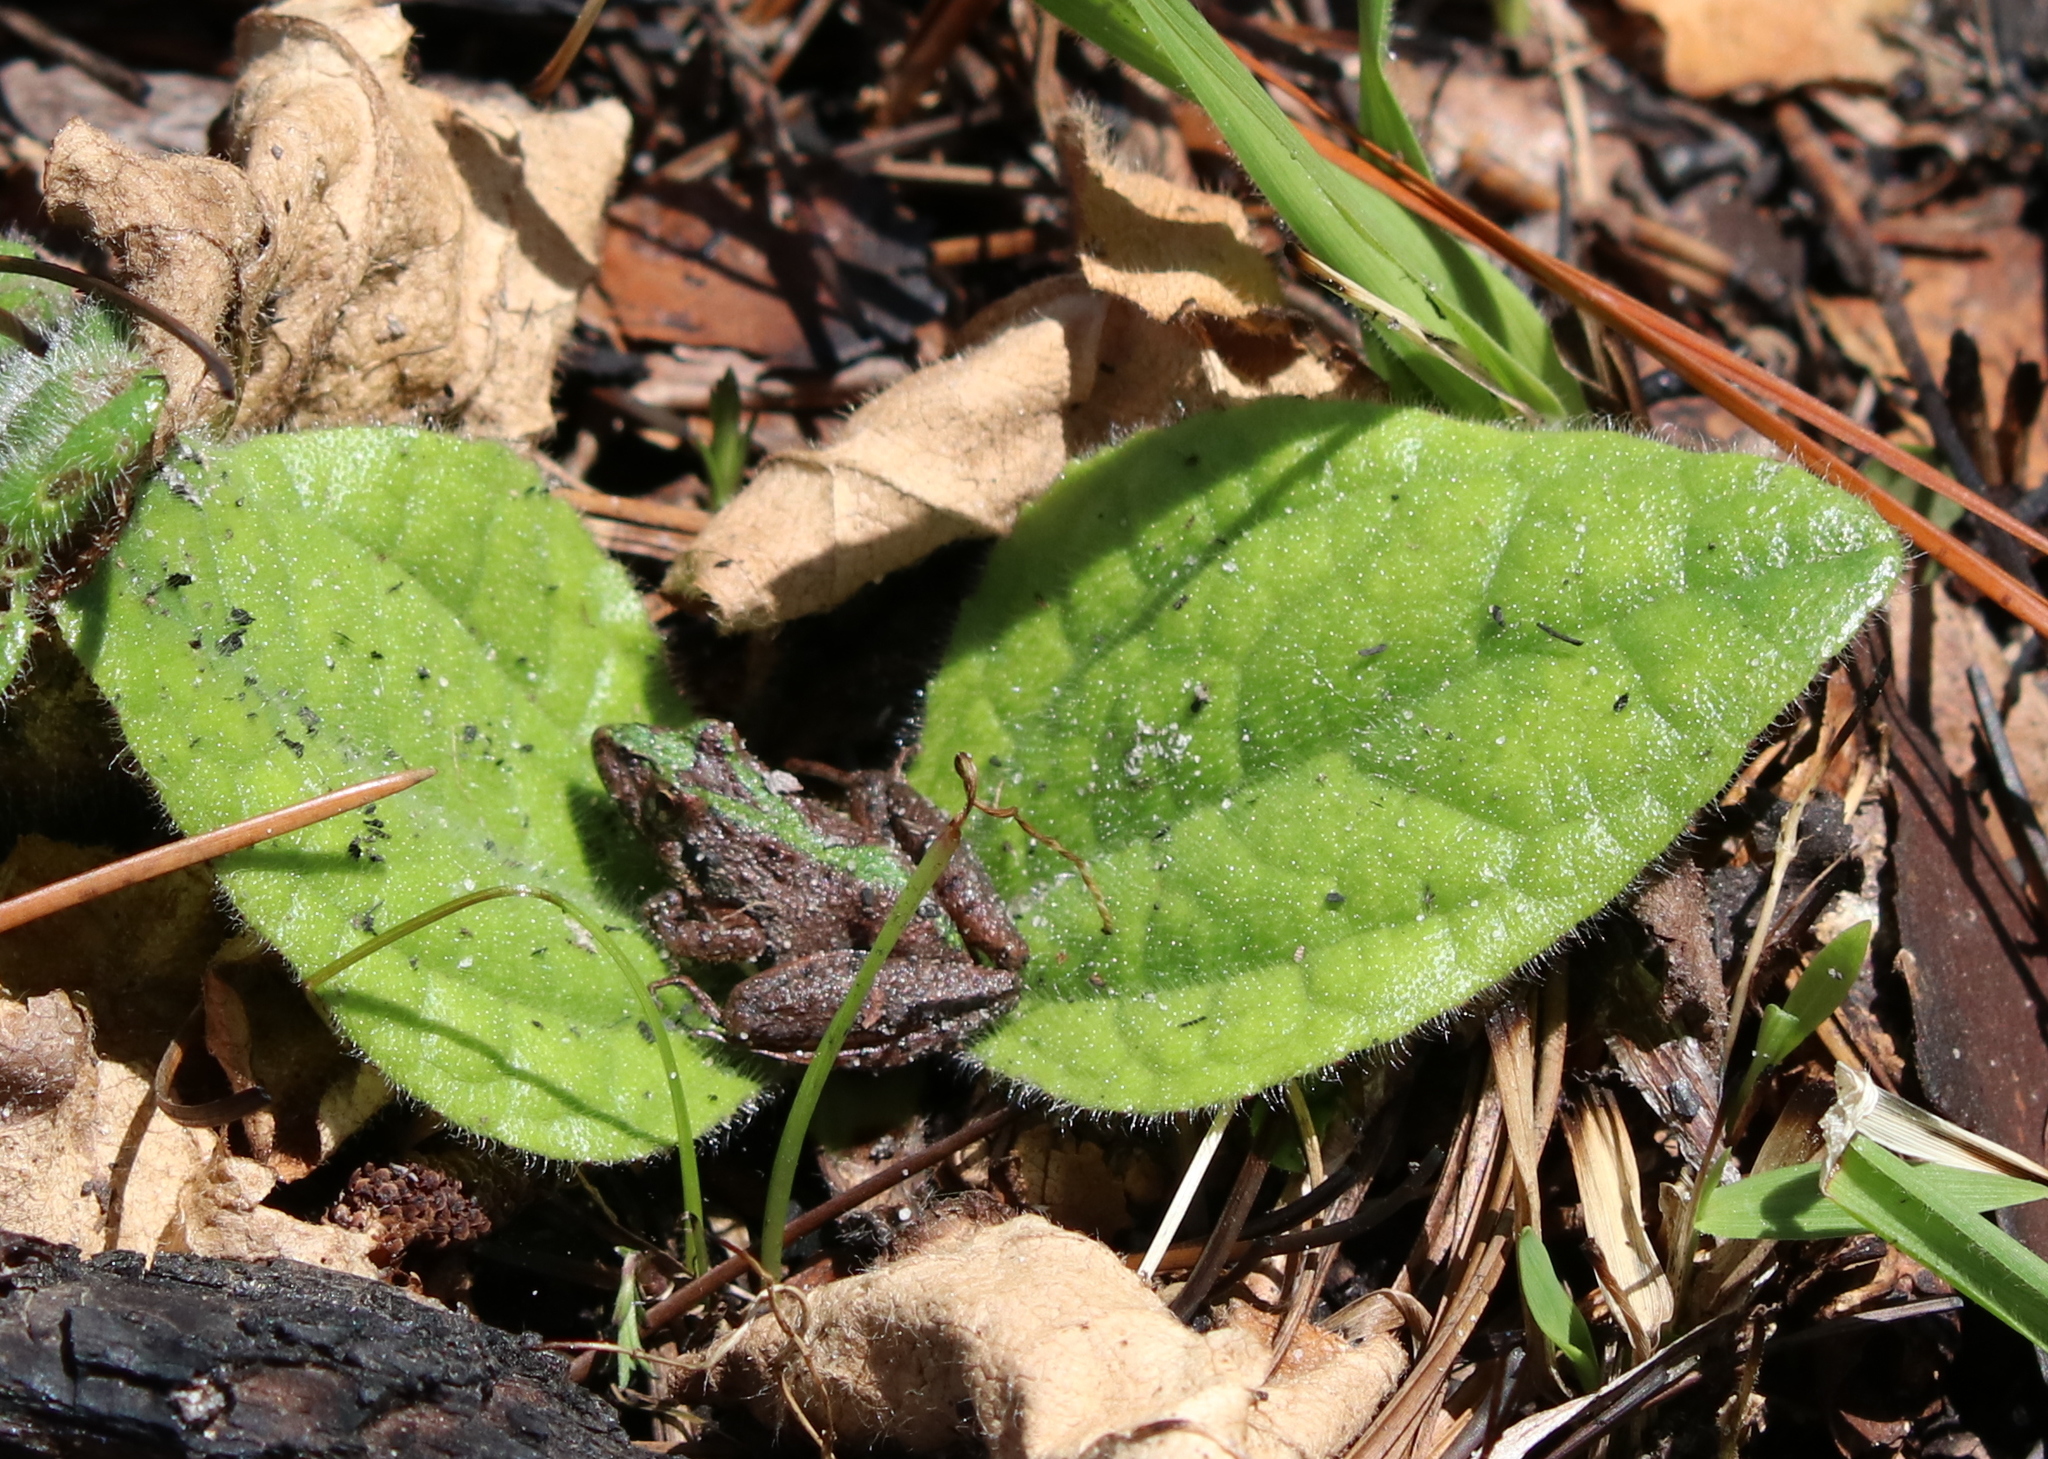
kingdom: Animalia
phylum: Chordata
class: Amphibia
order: Anura
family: Hylidae
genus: Acris
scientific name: Acris gryllus
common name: Southern cricket frog
